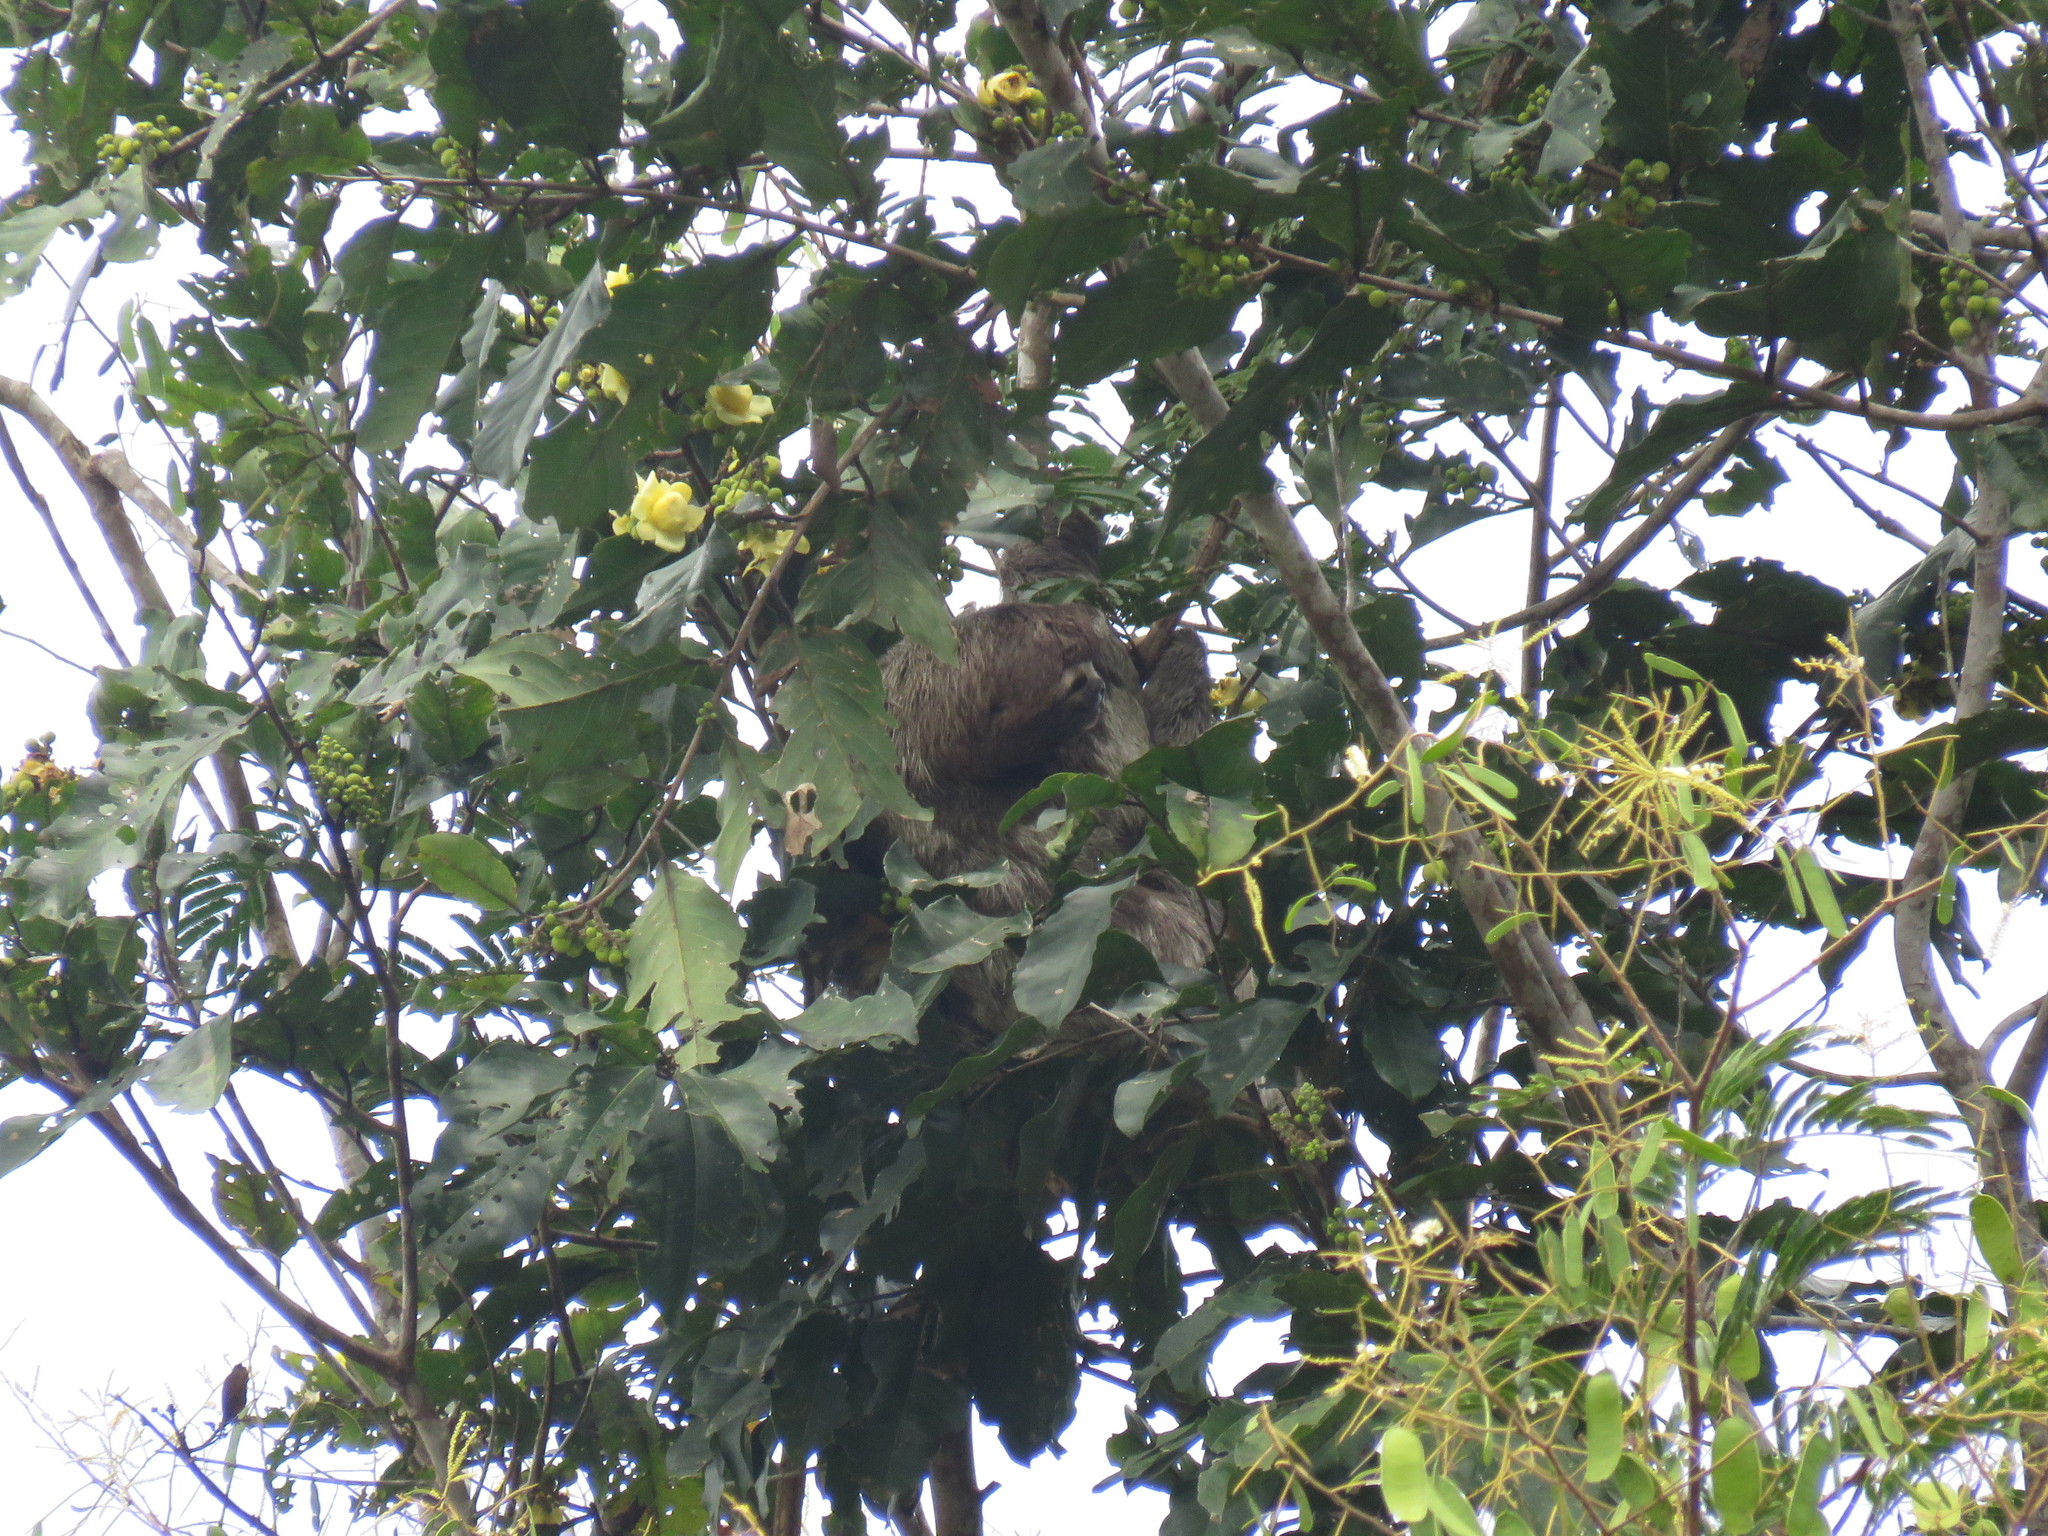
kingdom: Animalia
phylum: Chordata
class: Mammalia
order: Pilosa
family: Bradypodidae
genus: Bradypus
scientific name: Bradypus variegatus
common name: Brown-throated three-toed sloth
